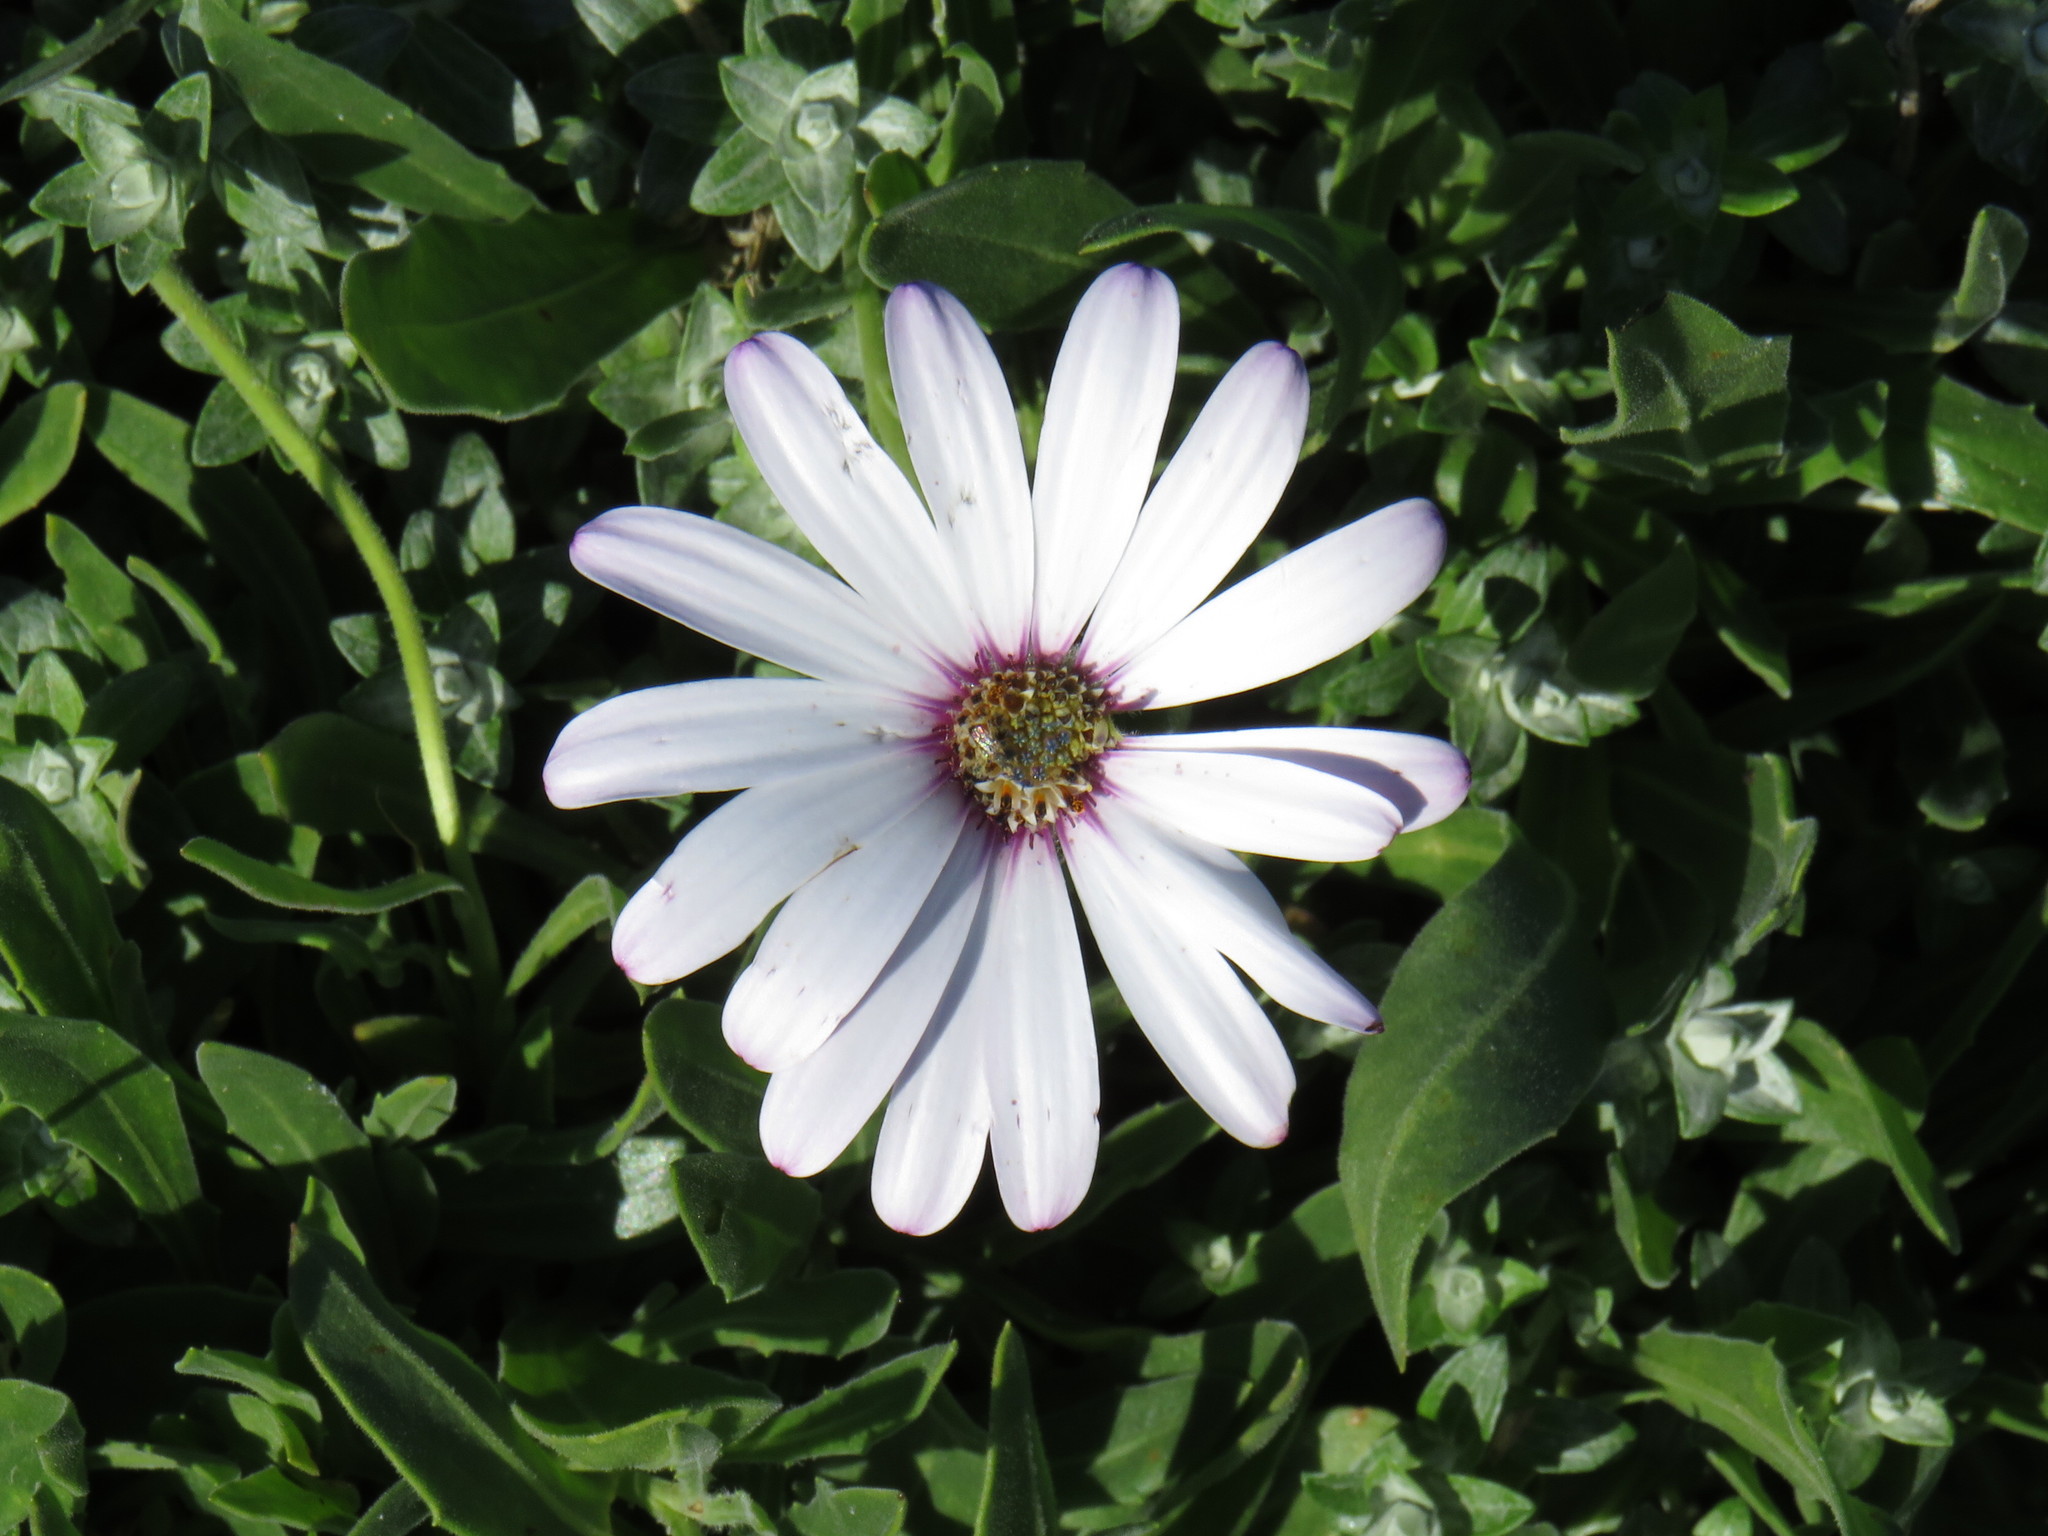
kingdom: Plantae
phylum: Tracheophyta
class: Magnoliopsida
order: Asterales
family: Asteraceae
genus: Dimorphotheca
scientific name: Dimorphotheca fruticosa
